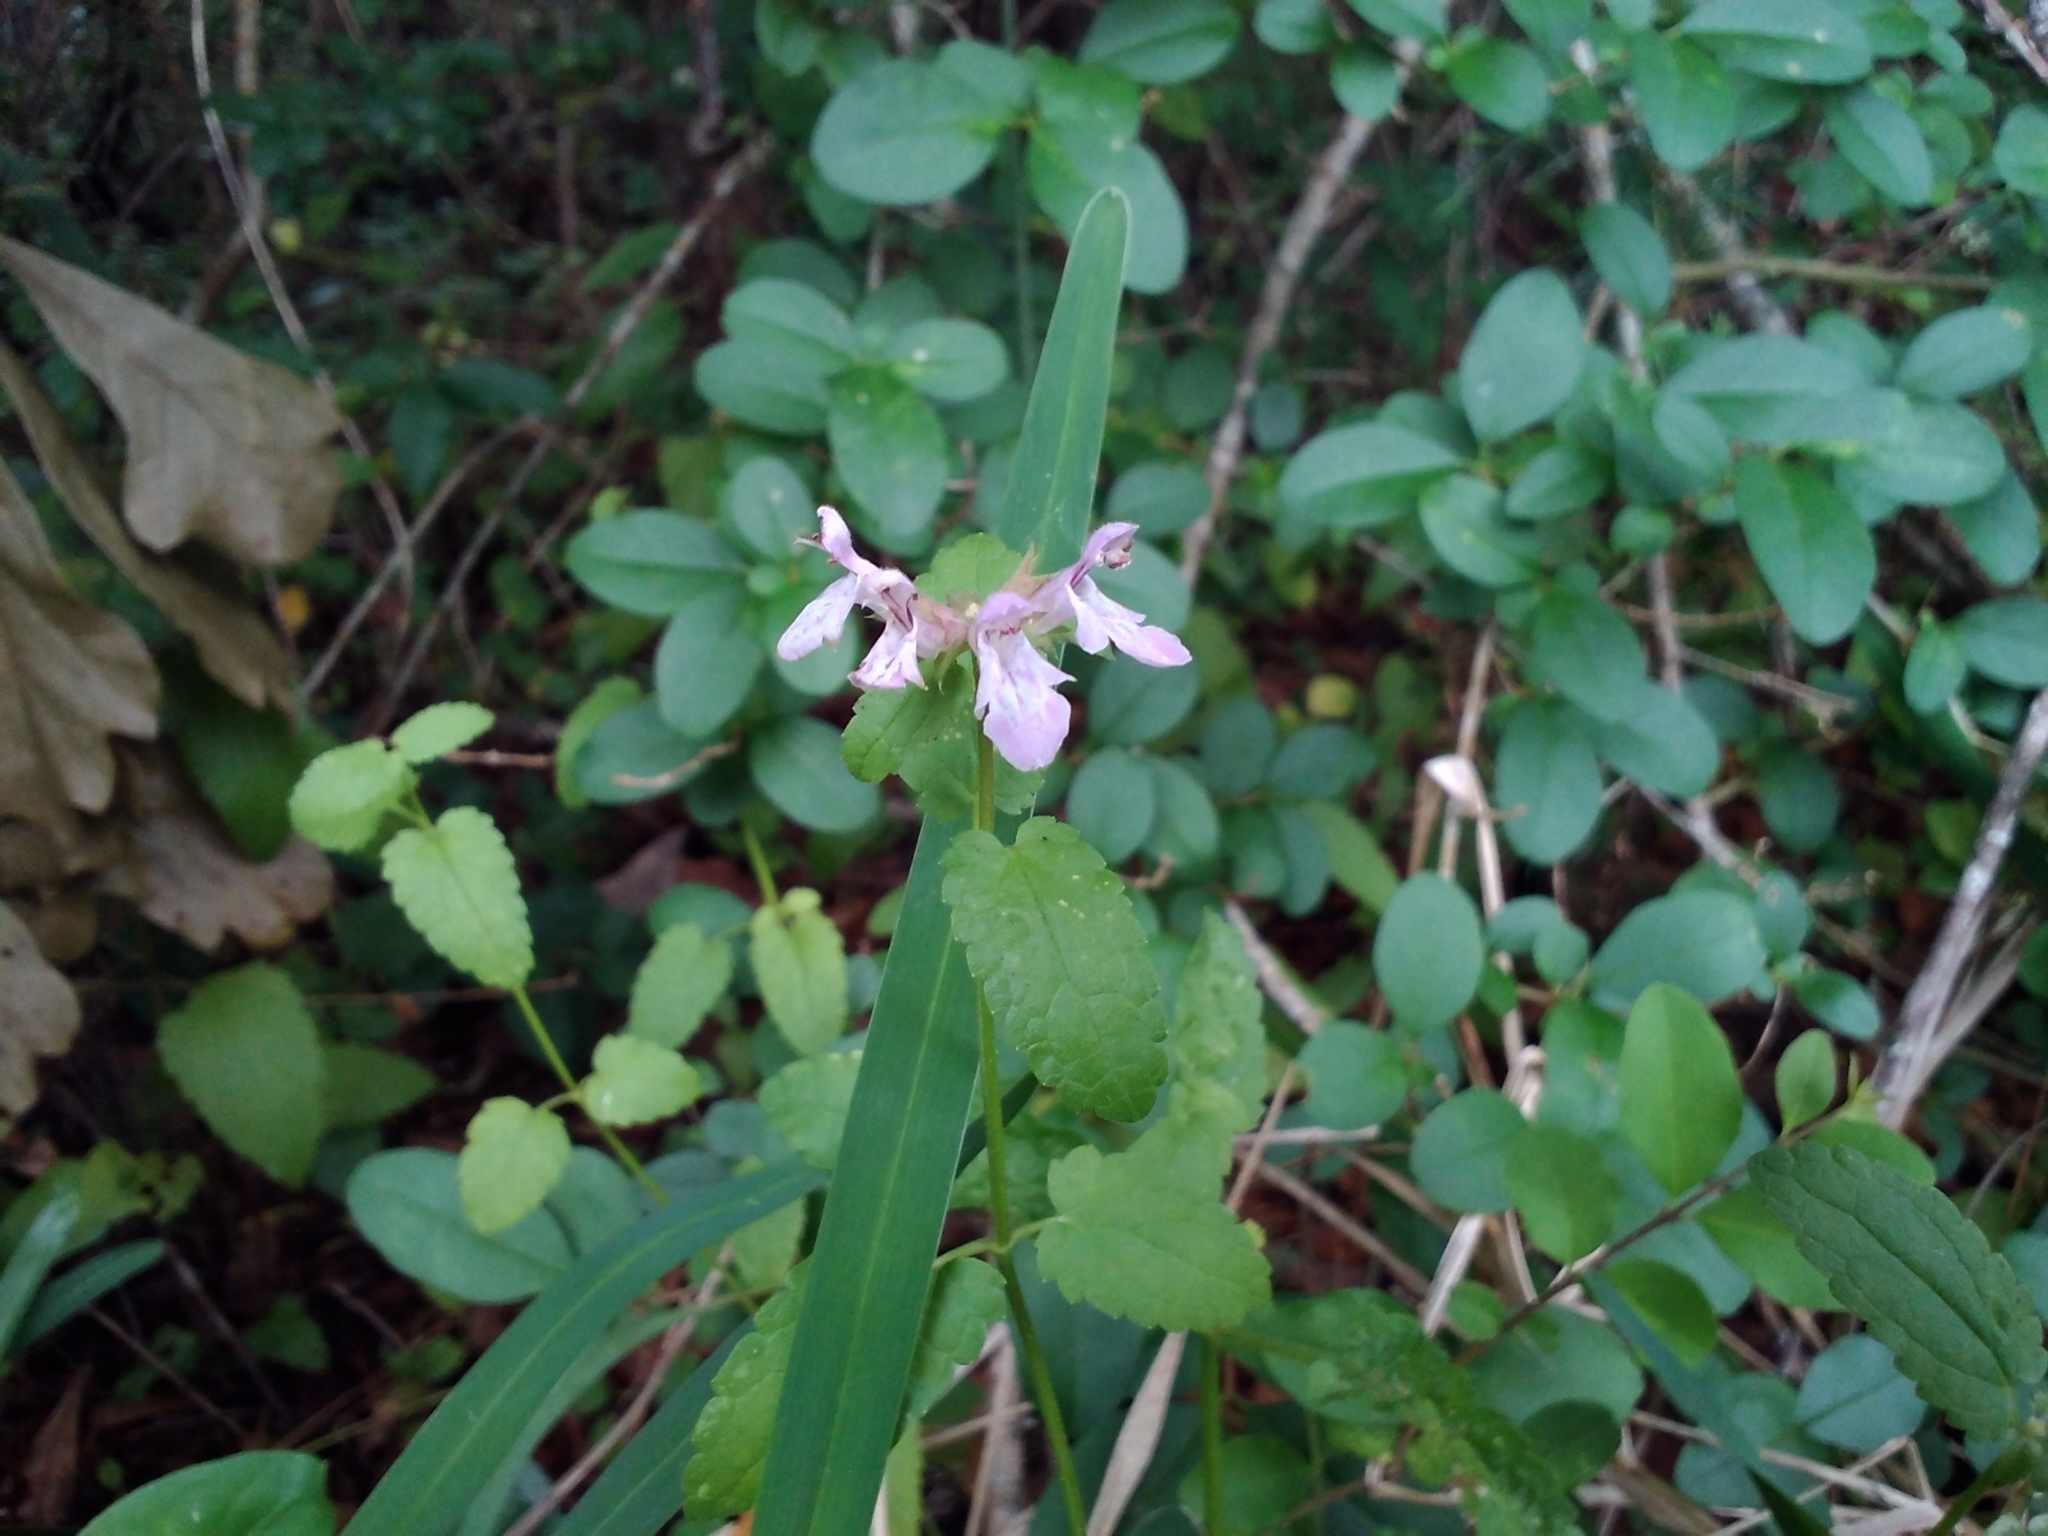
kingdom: Plantae
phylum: Tracheophyta
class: Magnoliopsida
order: Lamiales
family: Lamiaceae
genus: Stachys
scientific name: Stachys floridana
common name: Florida betony
